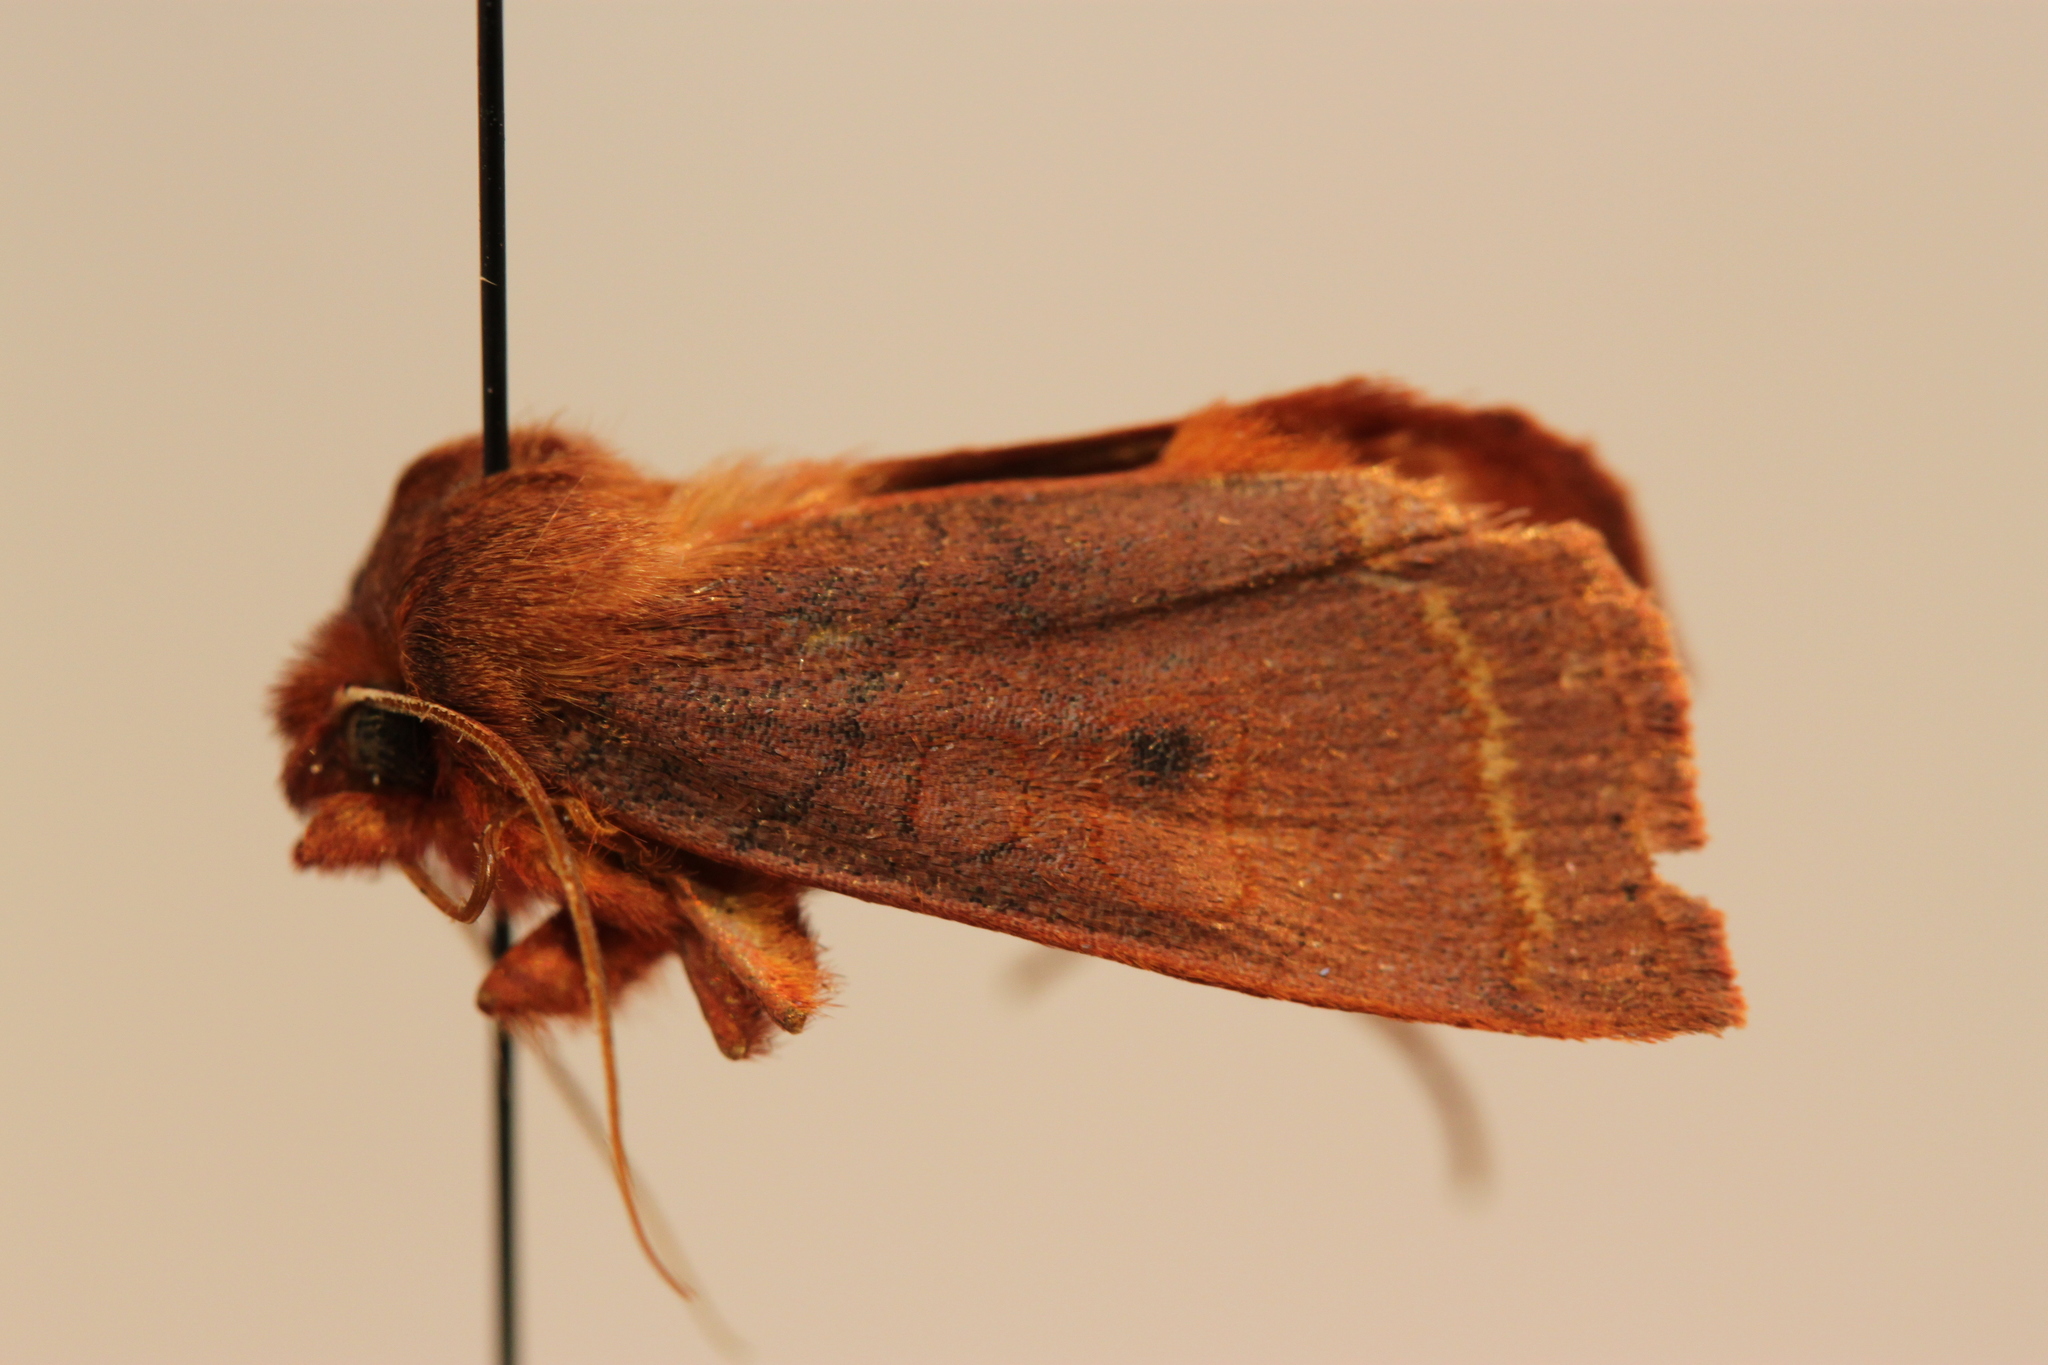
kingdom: Animalia
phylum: Arthropoda
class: Insecta
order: Lepidoptera
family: Noctuidae
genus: Epiglaea
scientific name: Epiglaea apiata
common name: Pointed sallow
